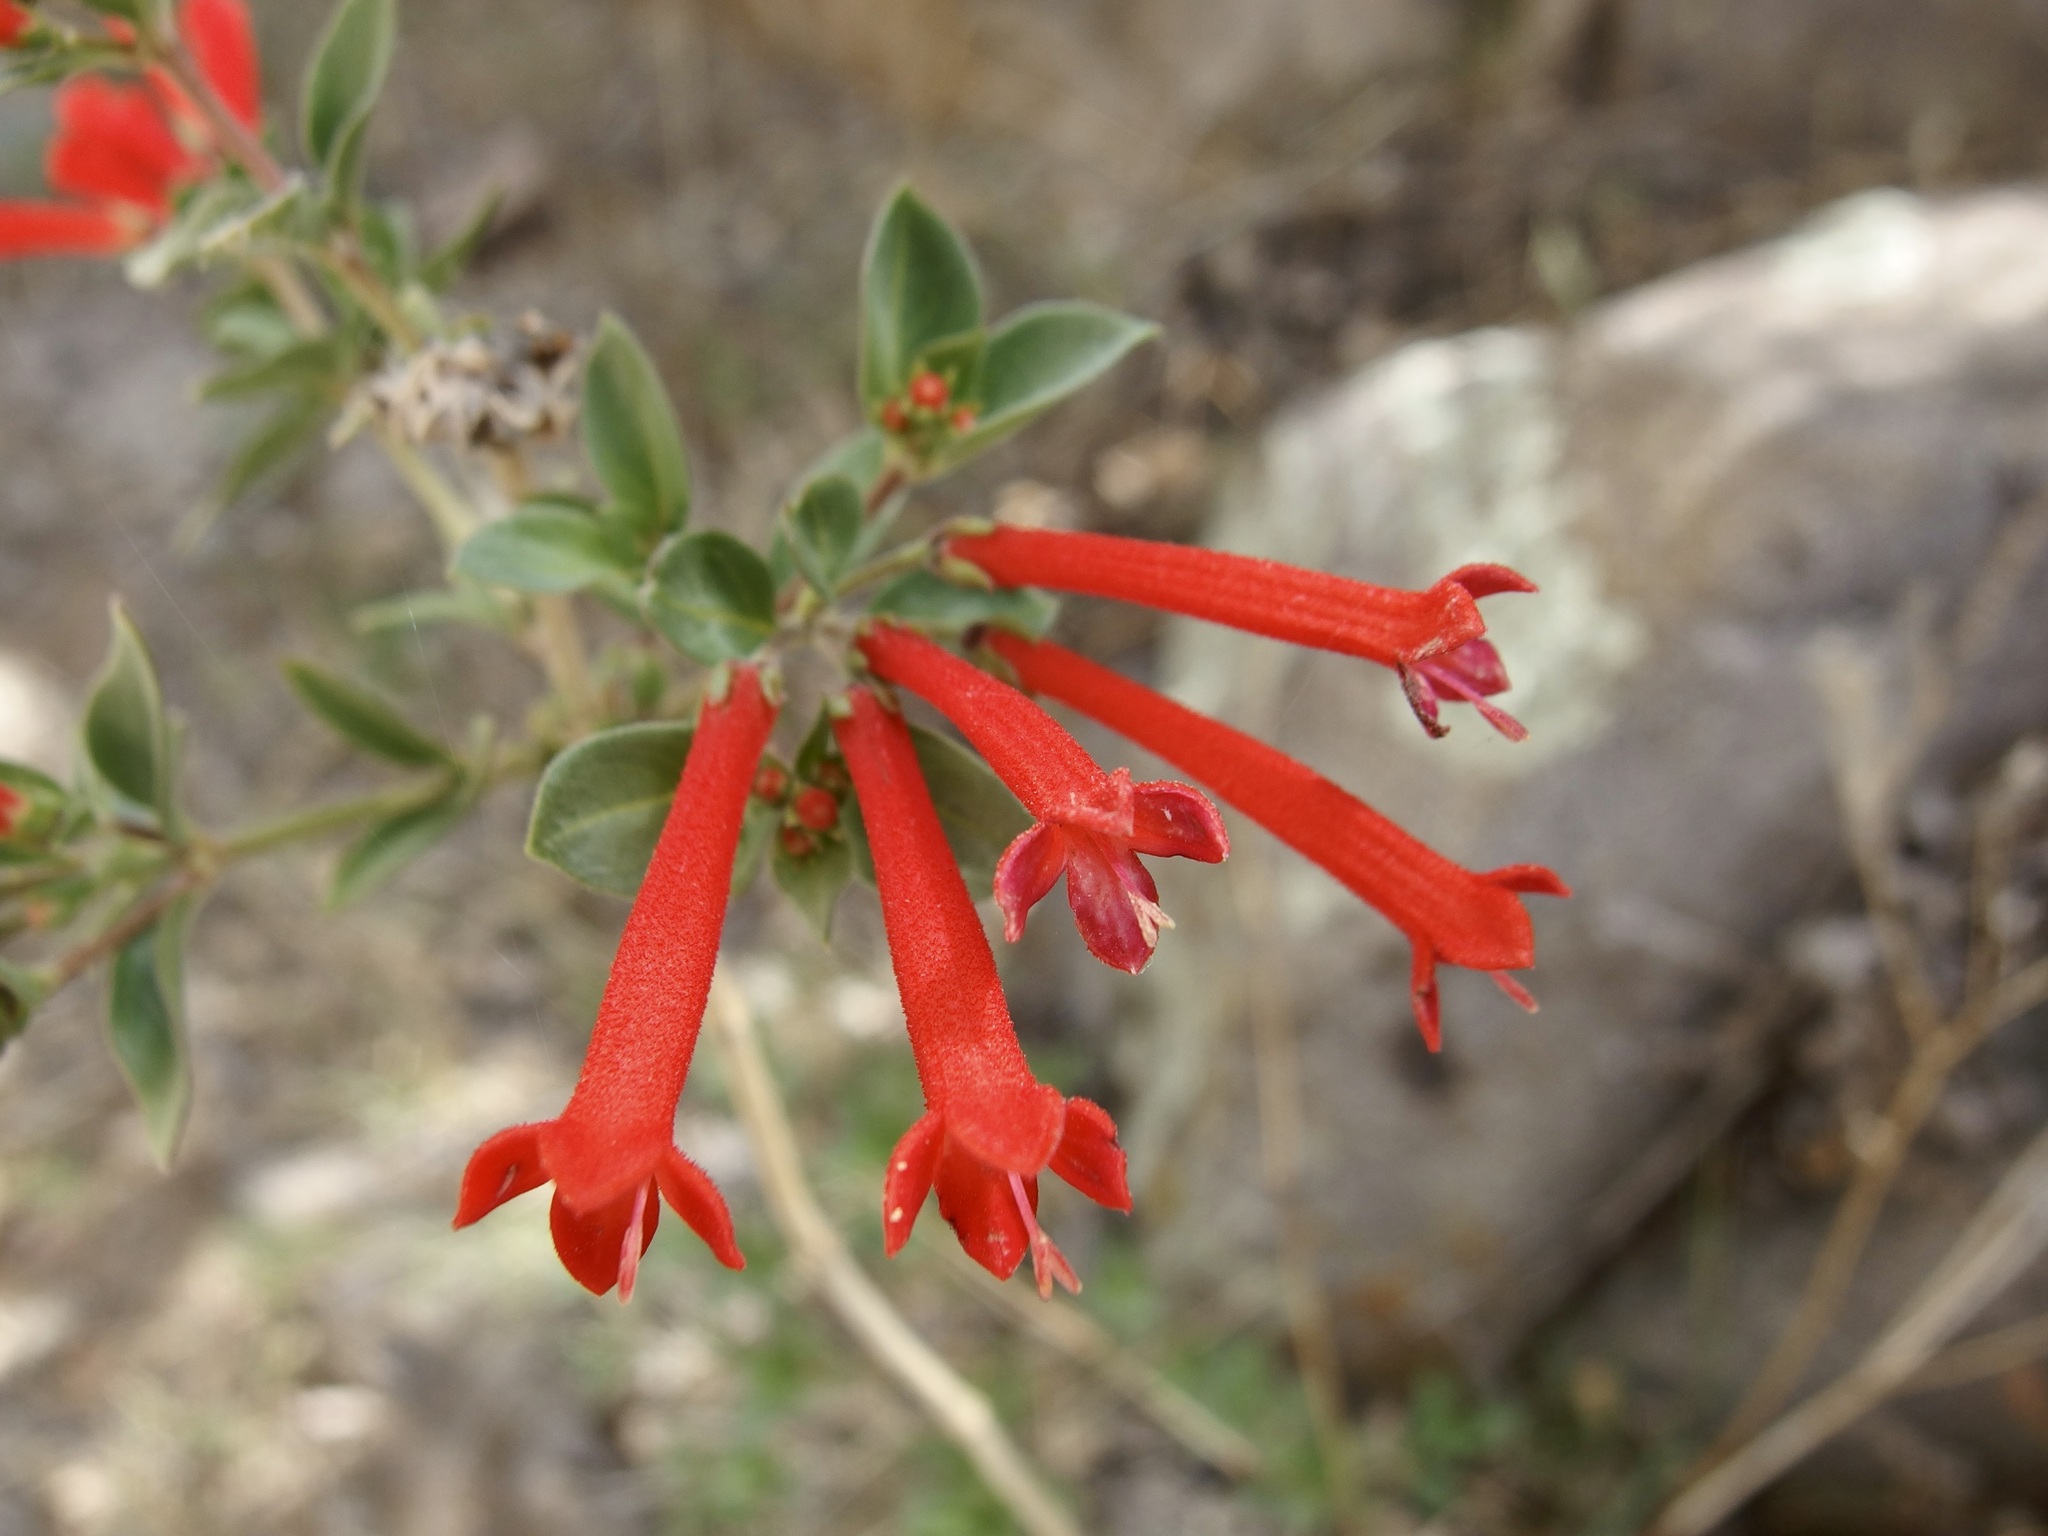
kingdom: Plantae
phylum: Tracheophyta
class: Magnoliopsida
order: Gentianales
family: Rubiaceae
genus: Bouvardia
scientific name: Bouvardia ternifolia
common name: Scarlet bouvardia
